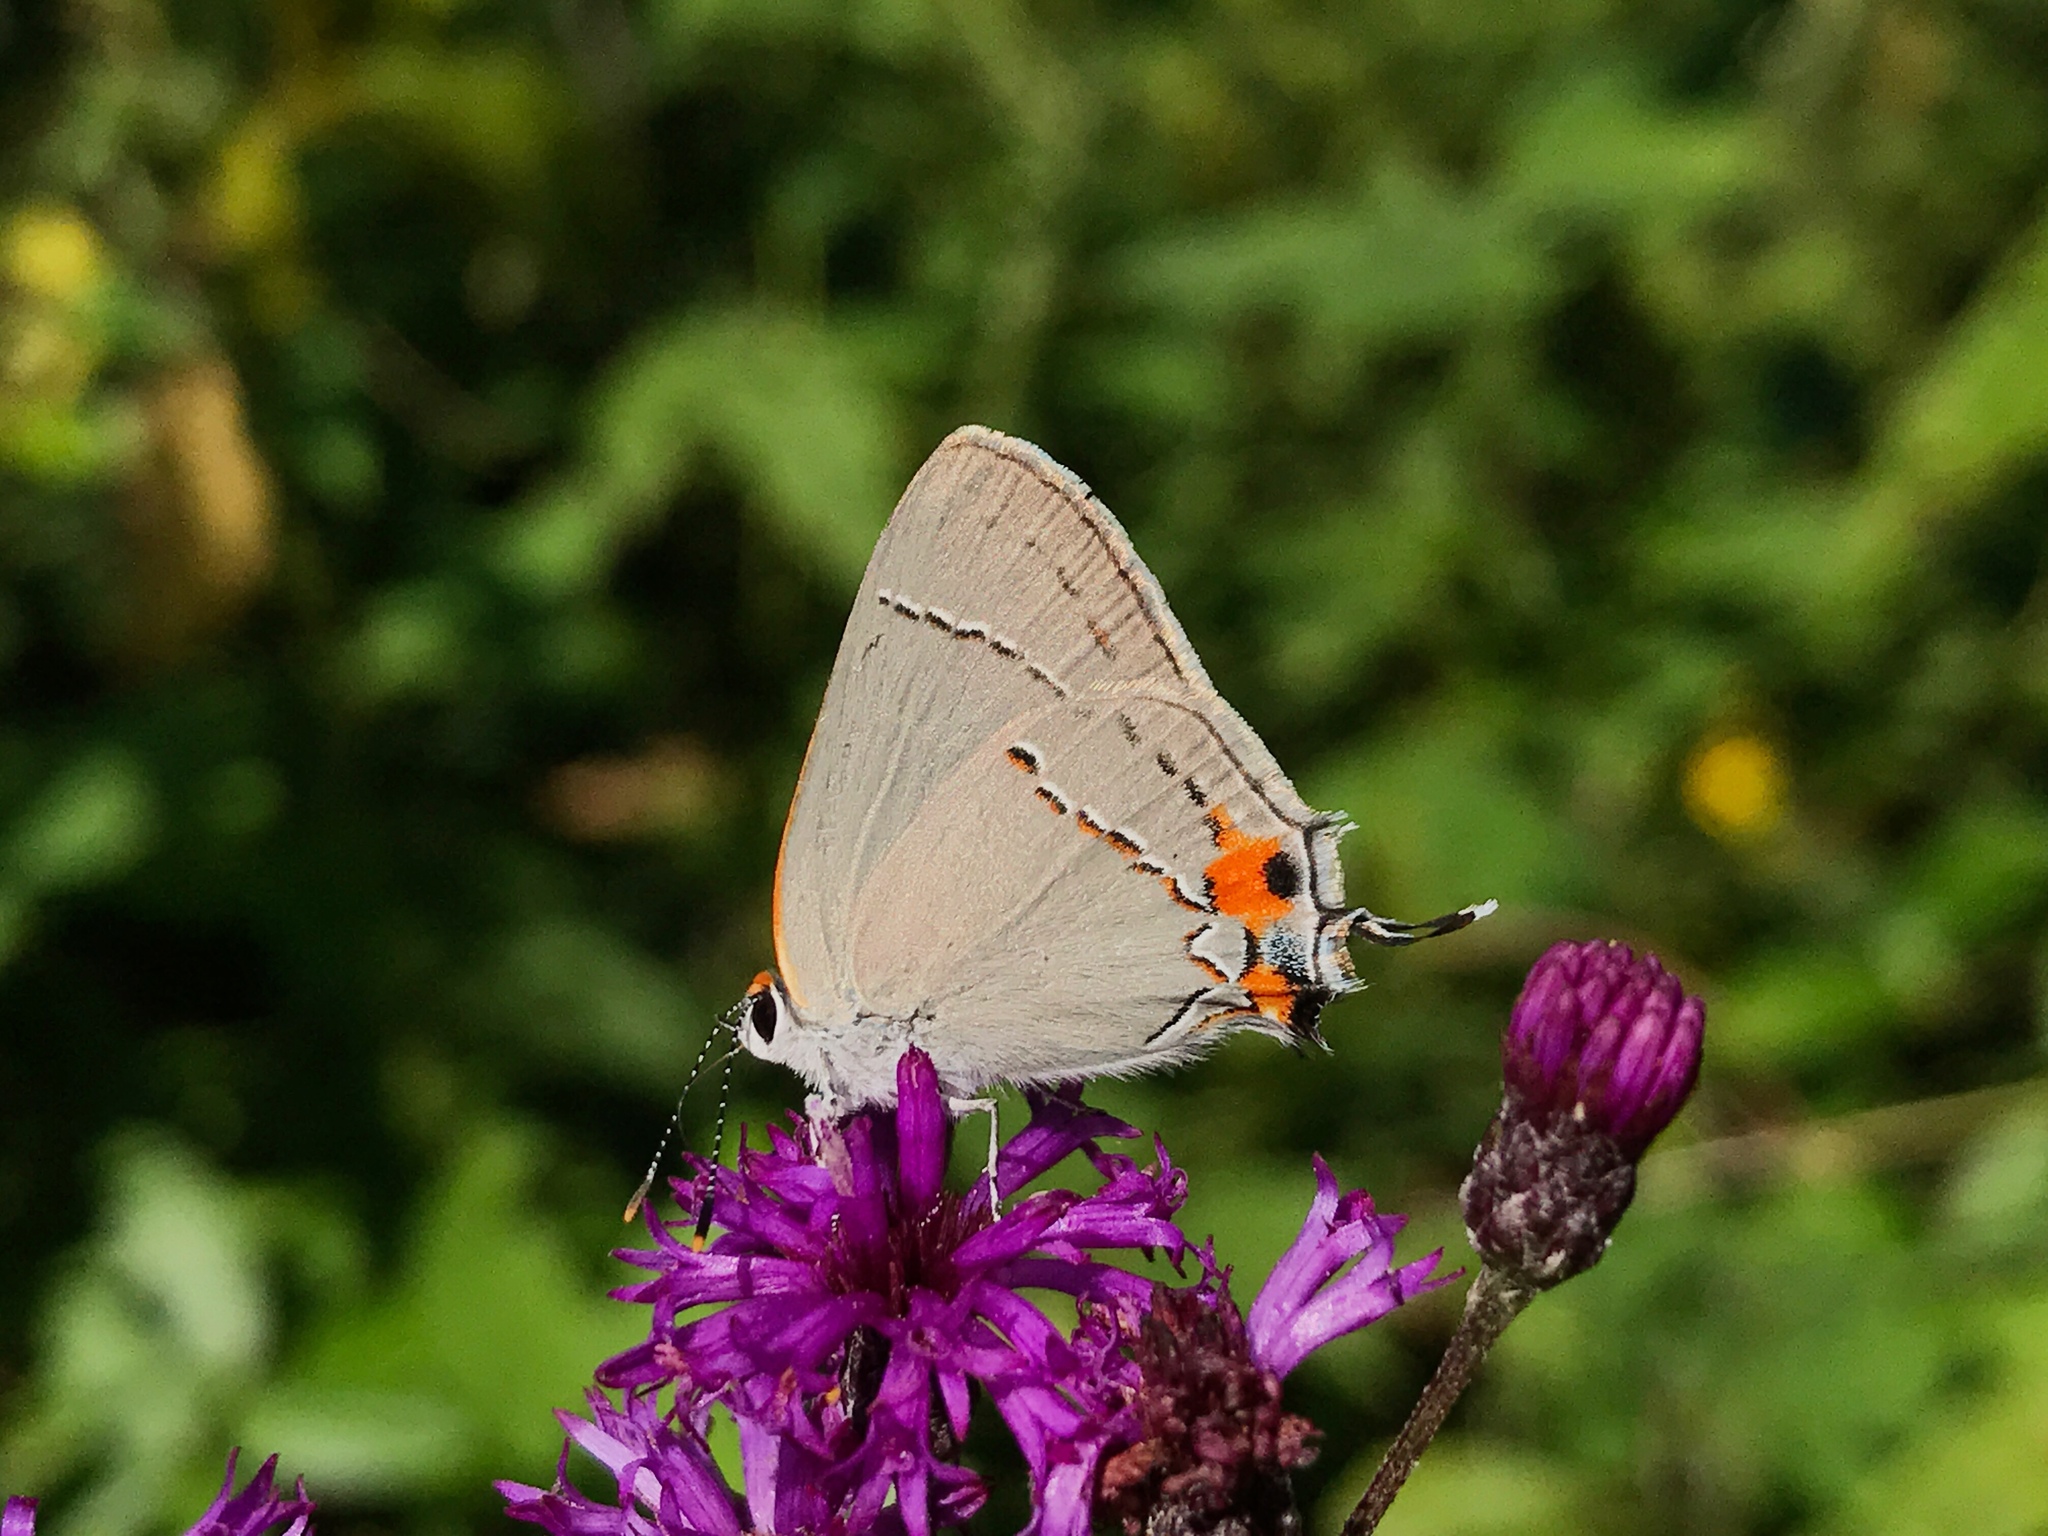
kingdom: Animalia
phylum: Arthropoda
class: Insecta
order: Lepidoptera
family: Lycaenidae
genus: Strymon
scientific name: Strymon melinus
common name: Gray hairstreak
